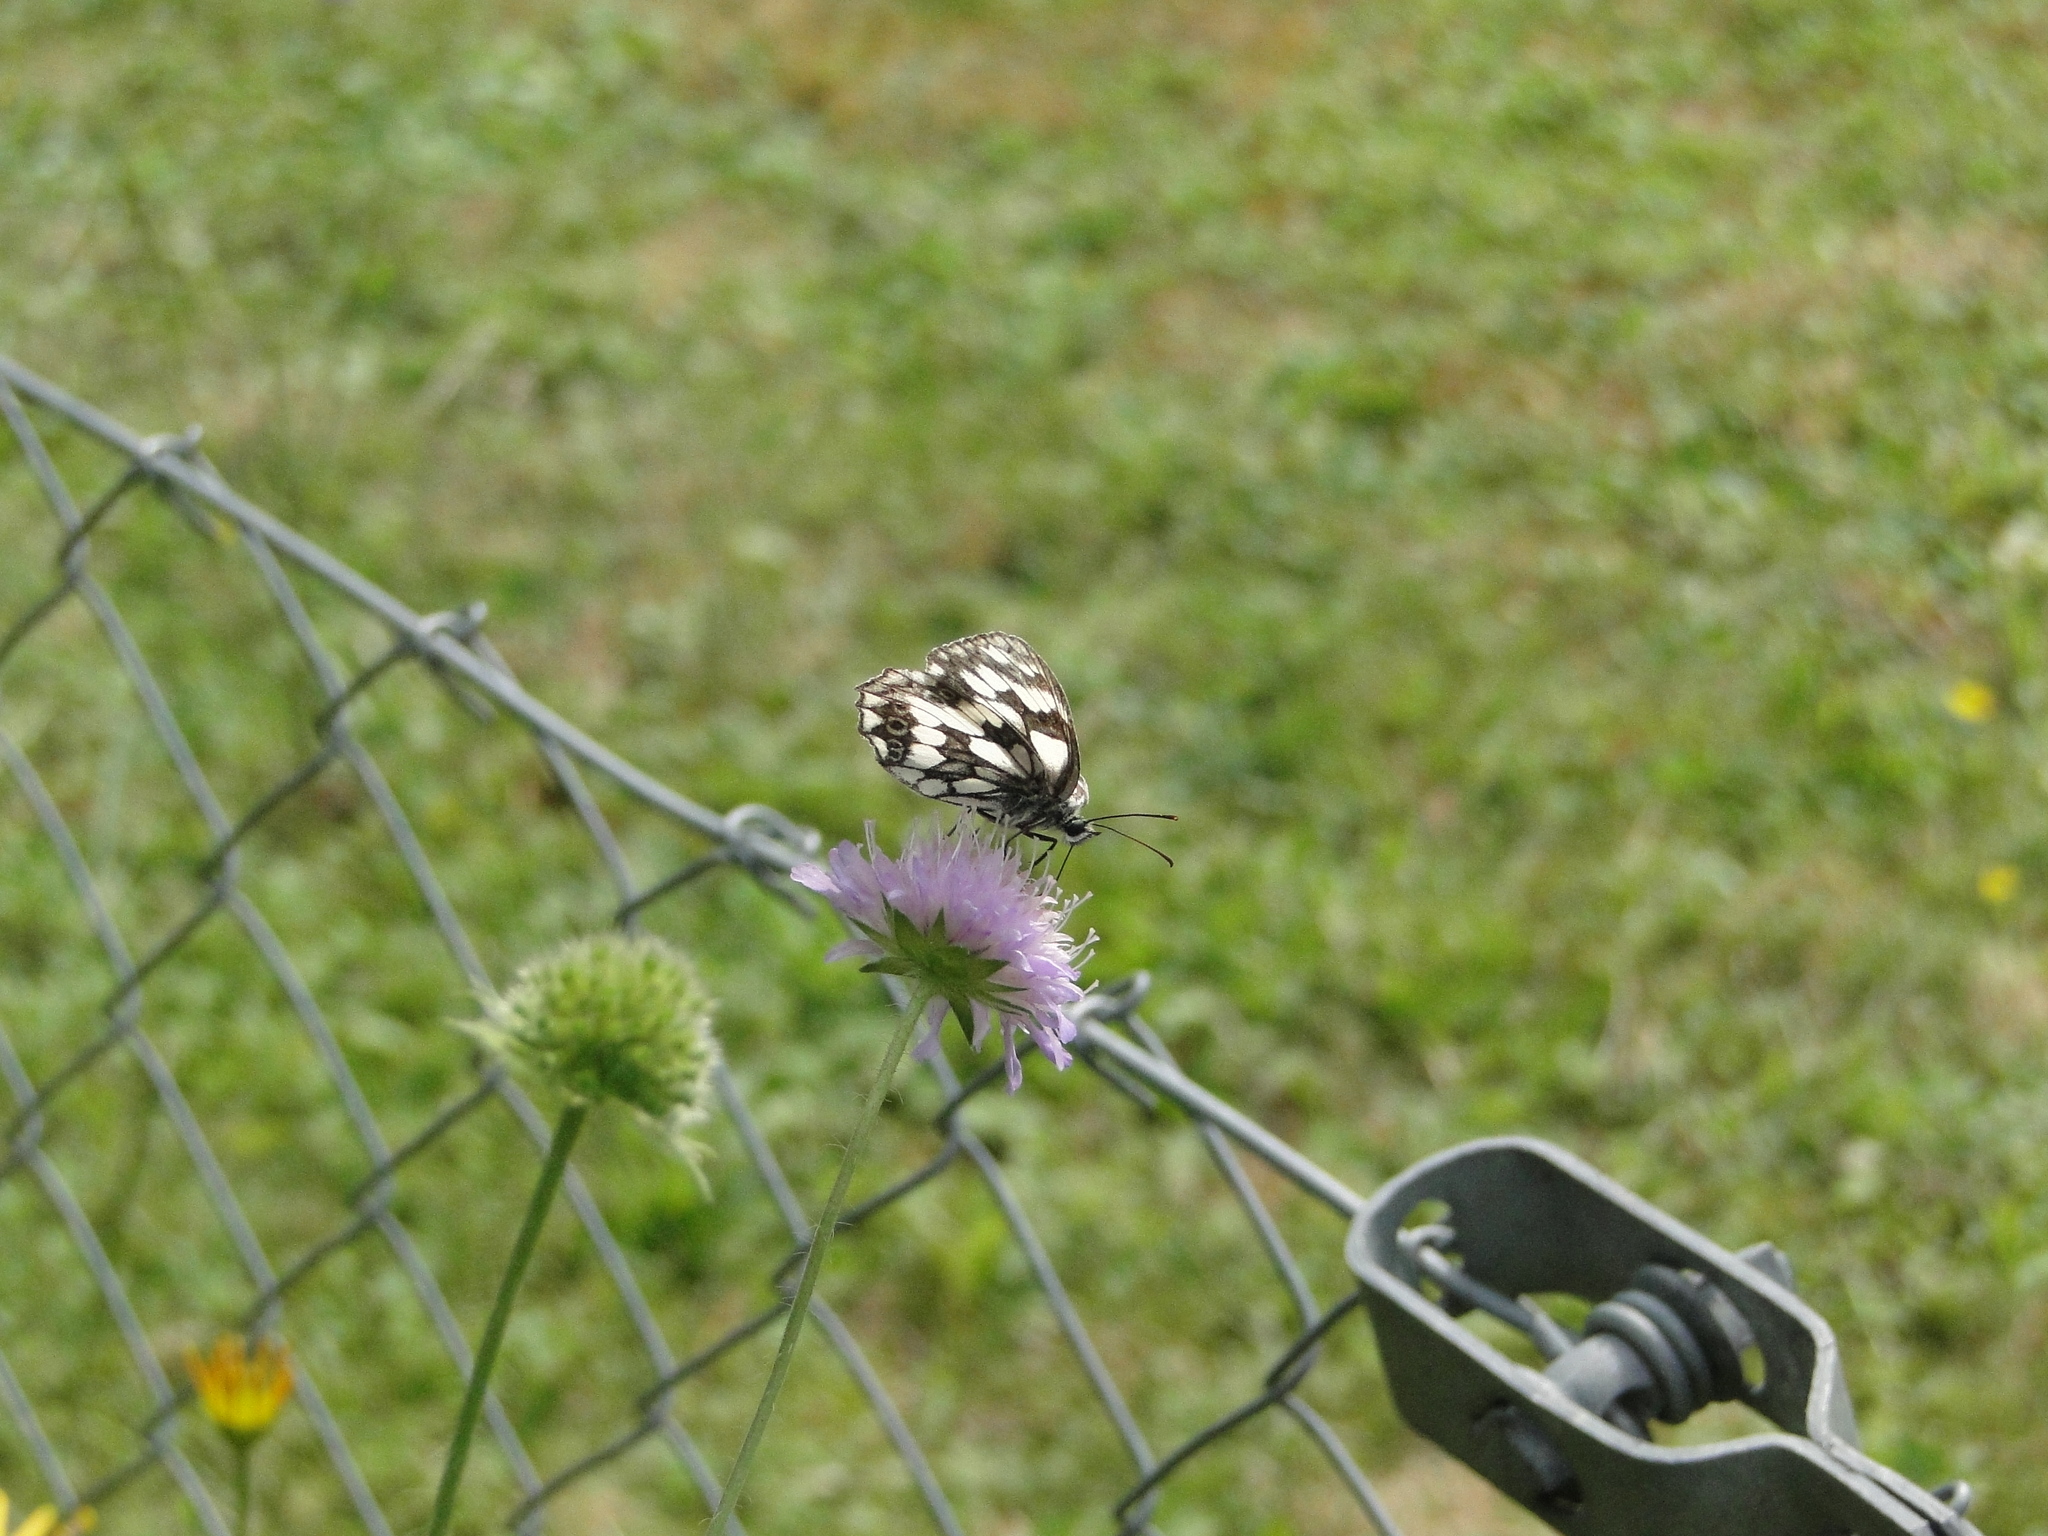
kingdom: Animalia
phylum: Arthropoda
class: Insecta
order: Lepidoptera
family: Nymphalidae
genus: Melanargia
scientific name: Melanargia galathea
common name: Marbled white
